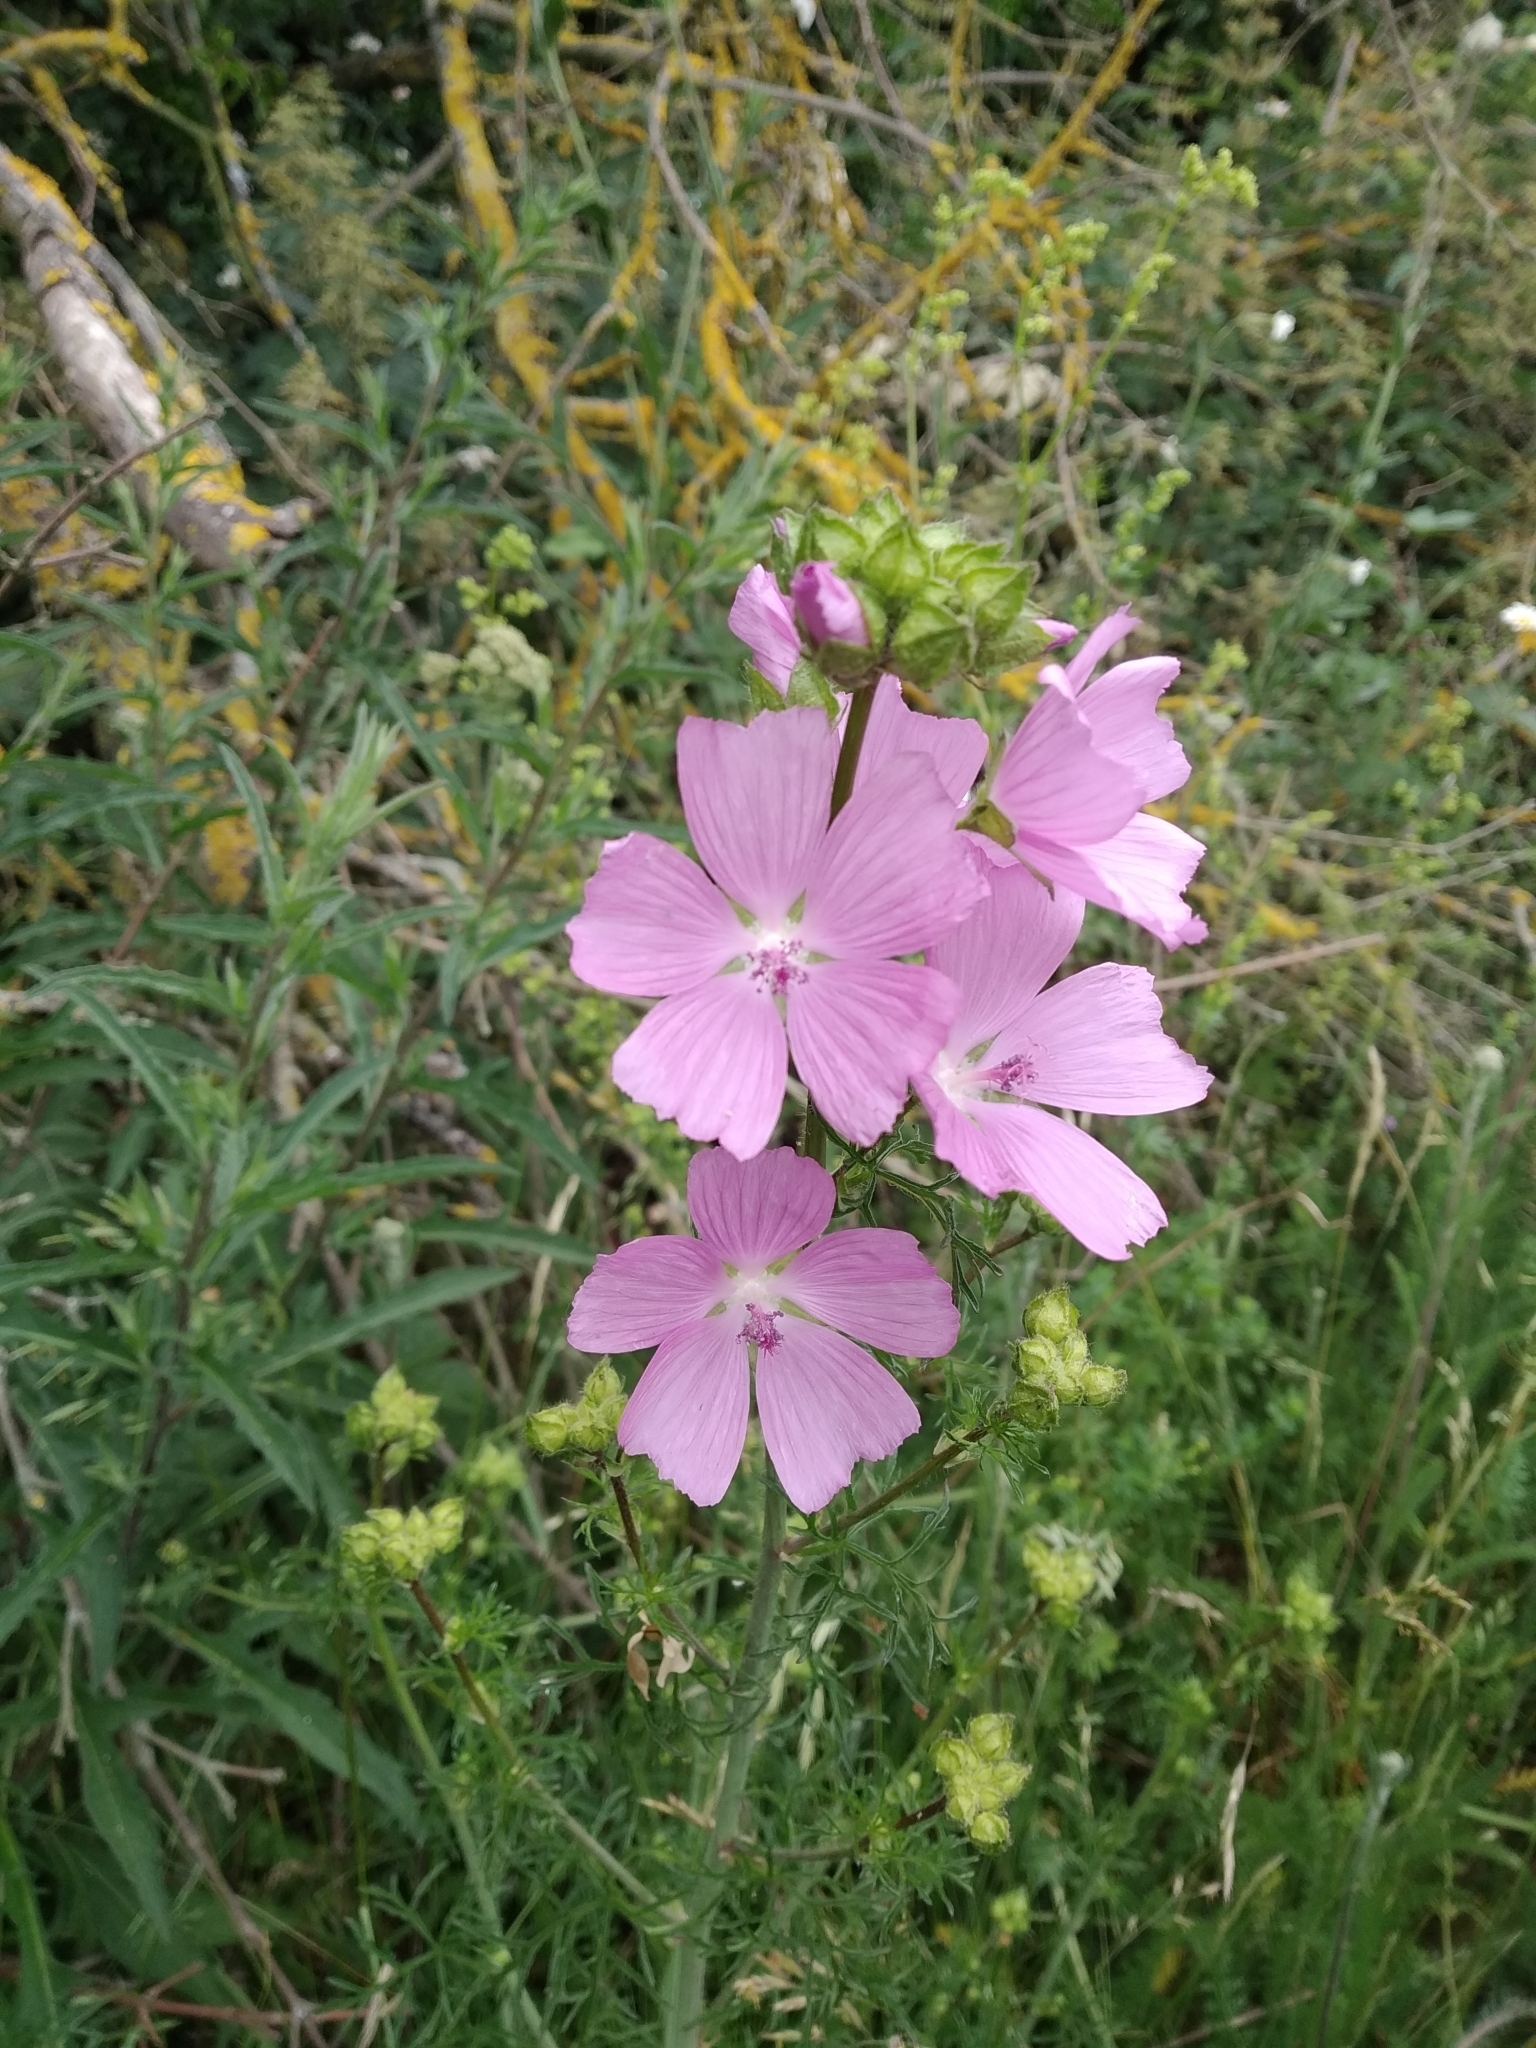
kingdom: Plantae
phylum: Tracheophyta
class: Magnoliopsida
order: Malvales
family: Malvaceae
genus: Malva
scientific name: Malva moschata
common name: Musk mallow
